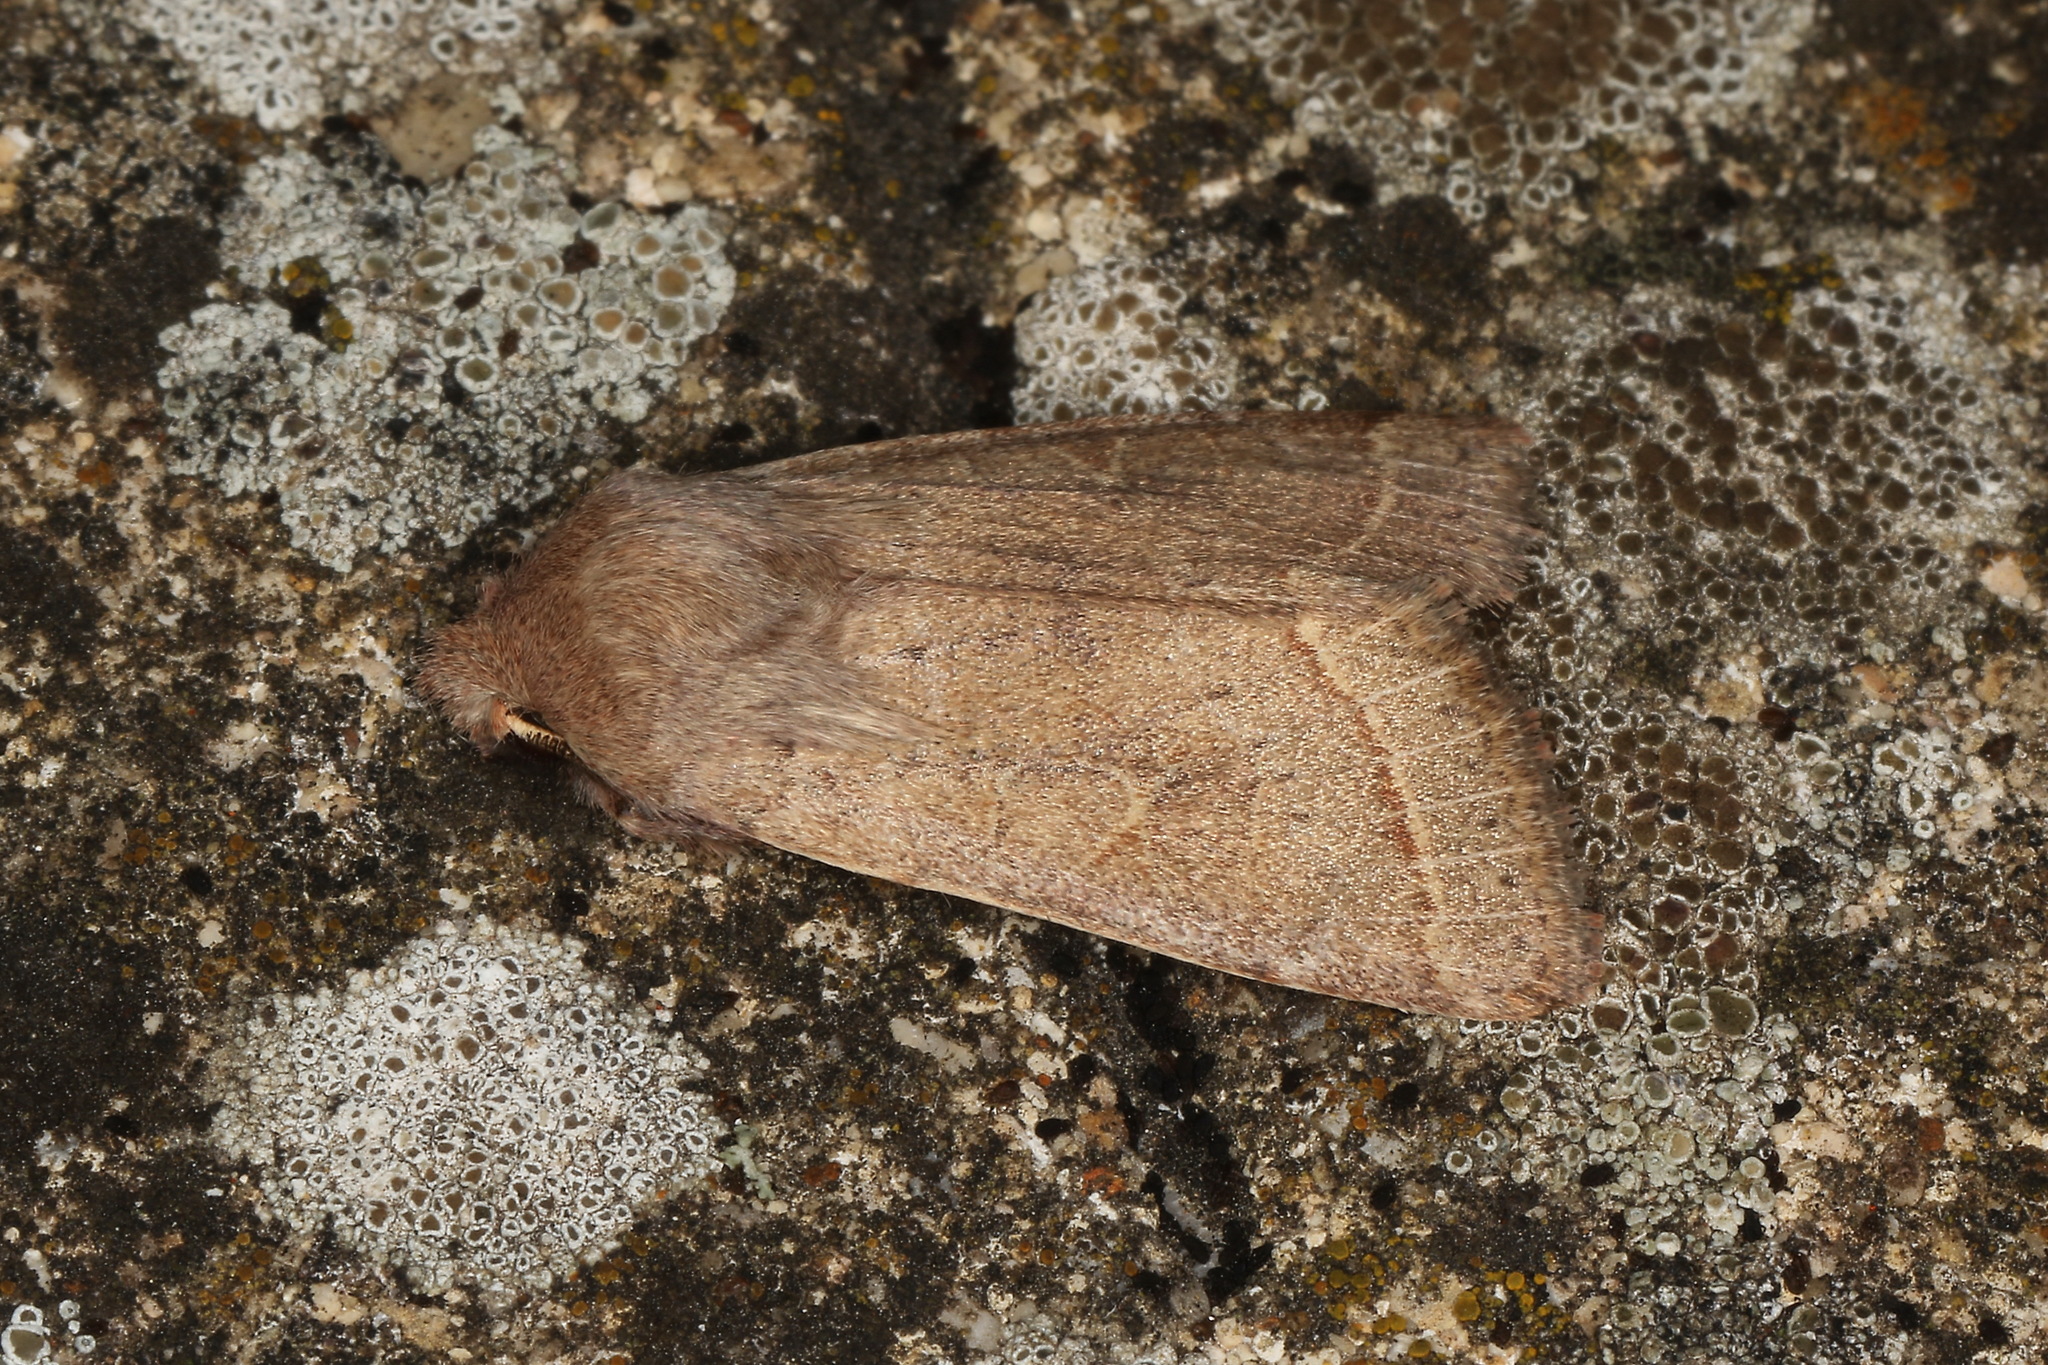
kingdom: Animalia
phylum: Arthropoda
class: Insecta
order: Lepidoptera
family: Noctuidae
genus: Orthosia
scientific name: Orthosia cerasi
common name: Common quaker
